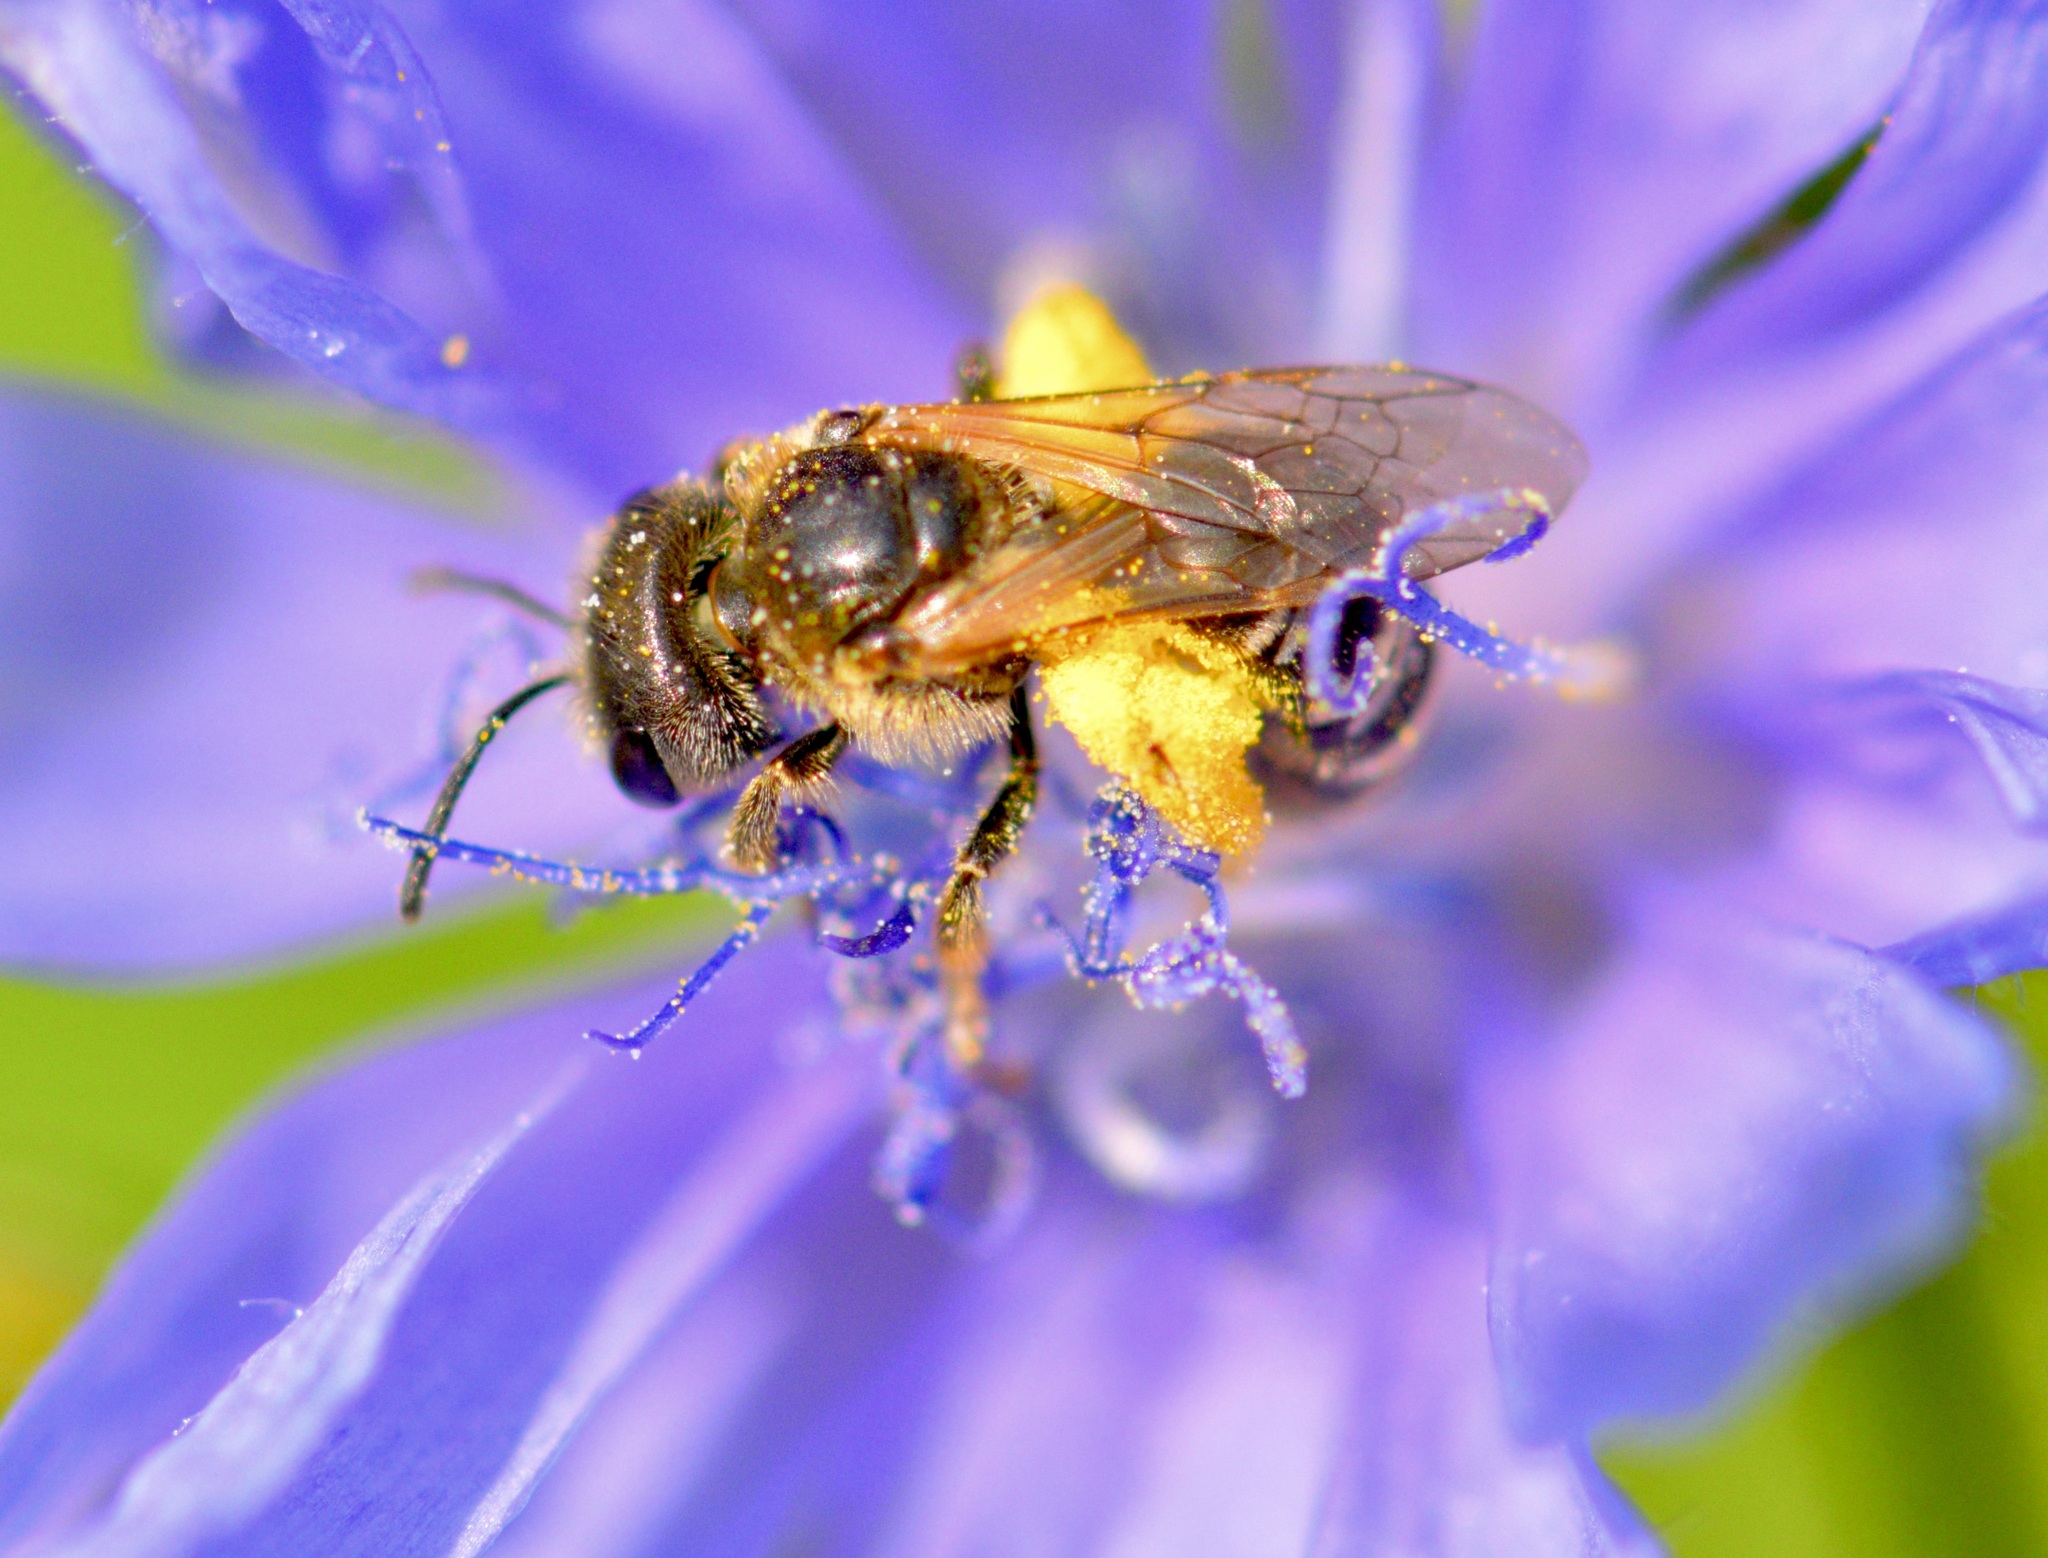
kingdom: Animalia
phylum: Arthropoda
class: Insecta
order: Hymenoptera
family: Halictidae
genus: Halictus
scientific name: Halictus ligatus
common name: Ligated furrow bee
